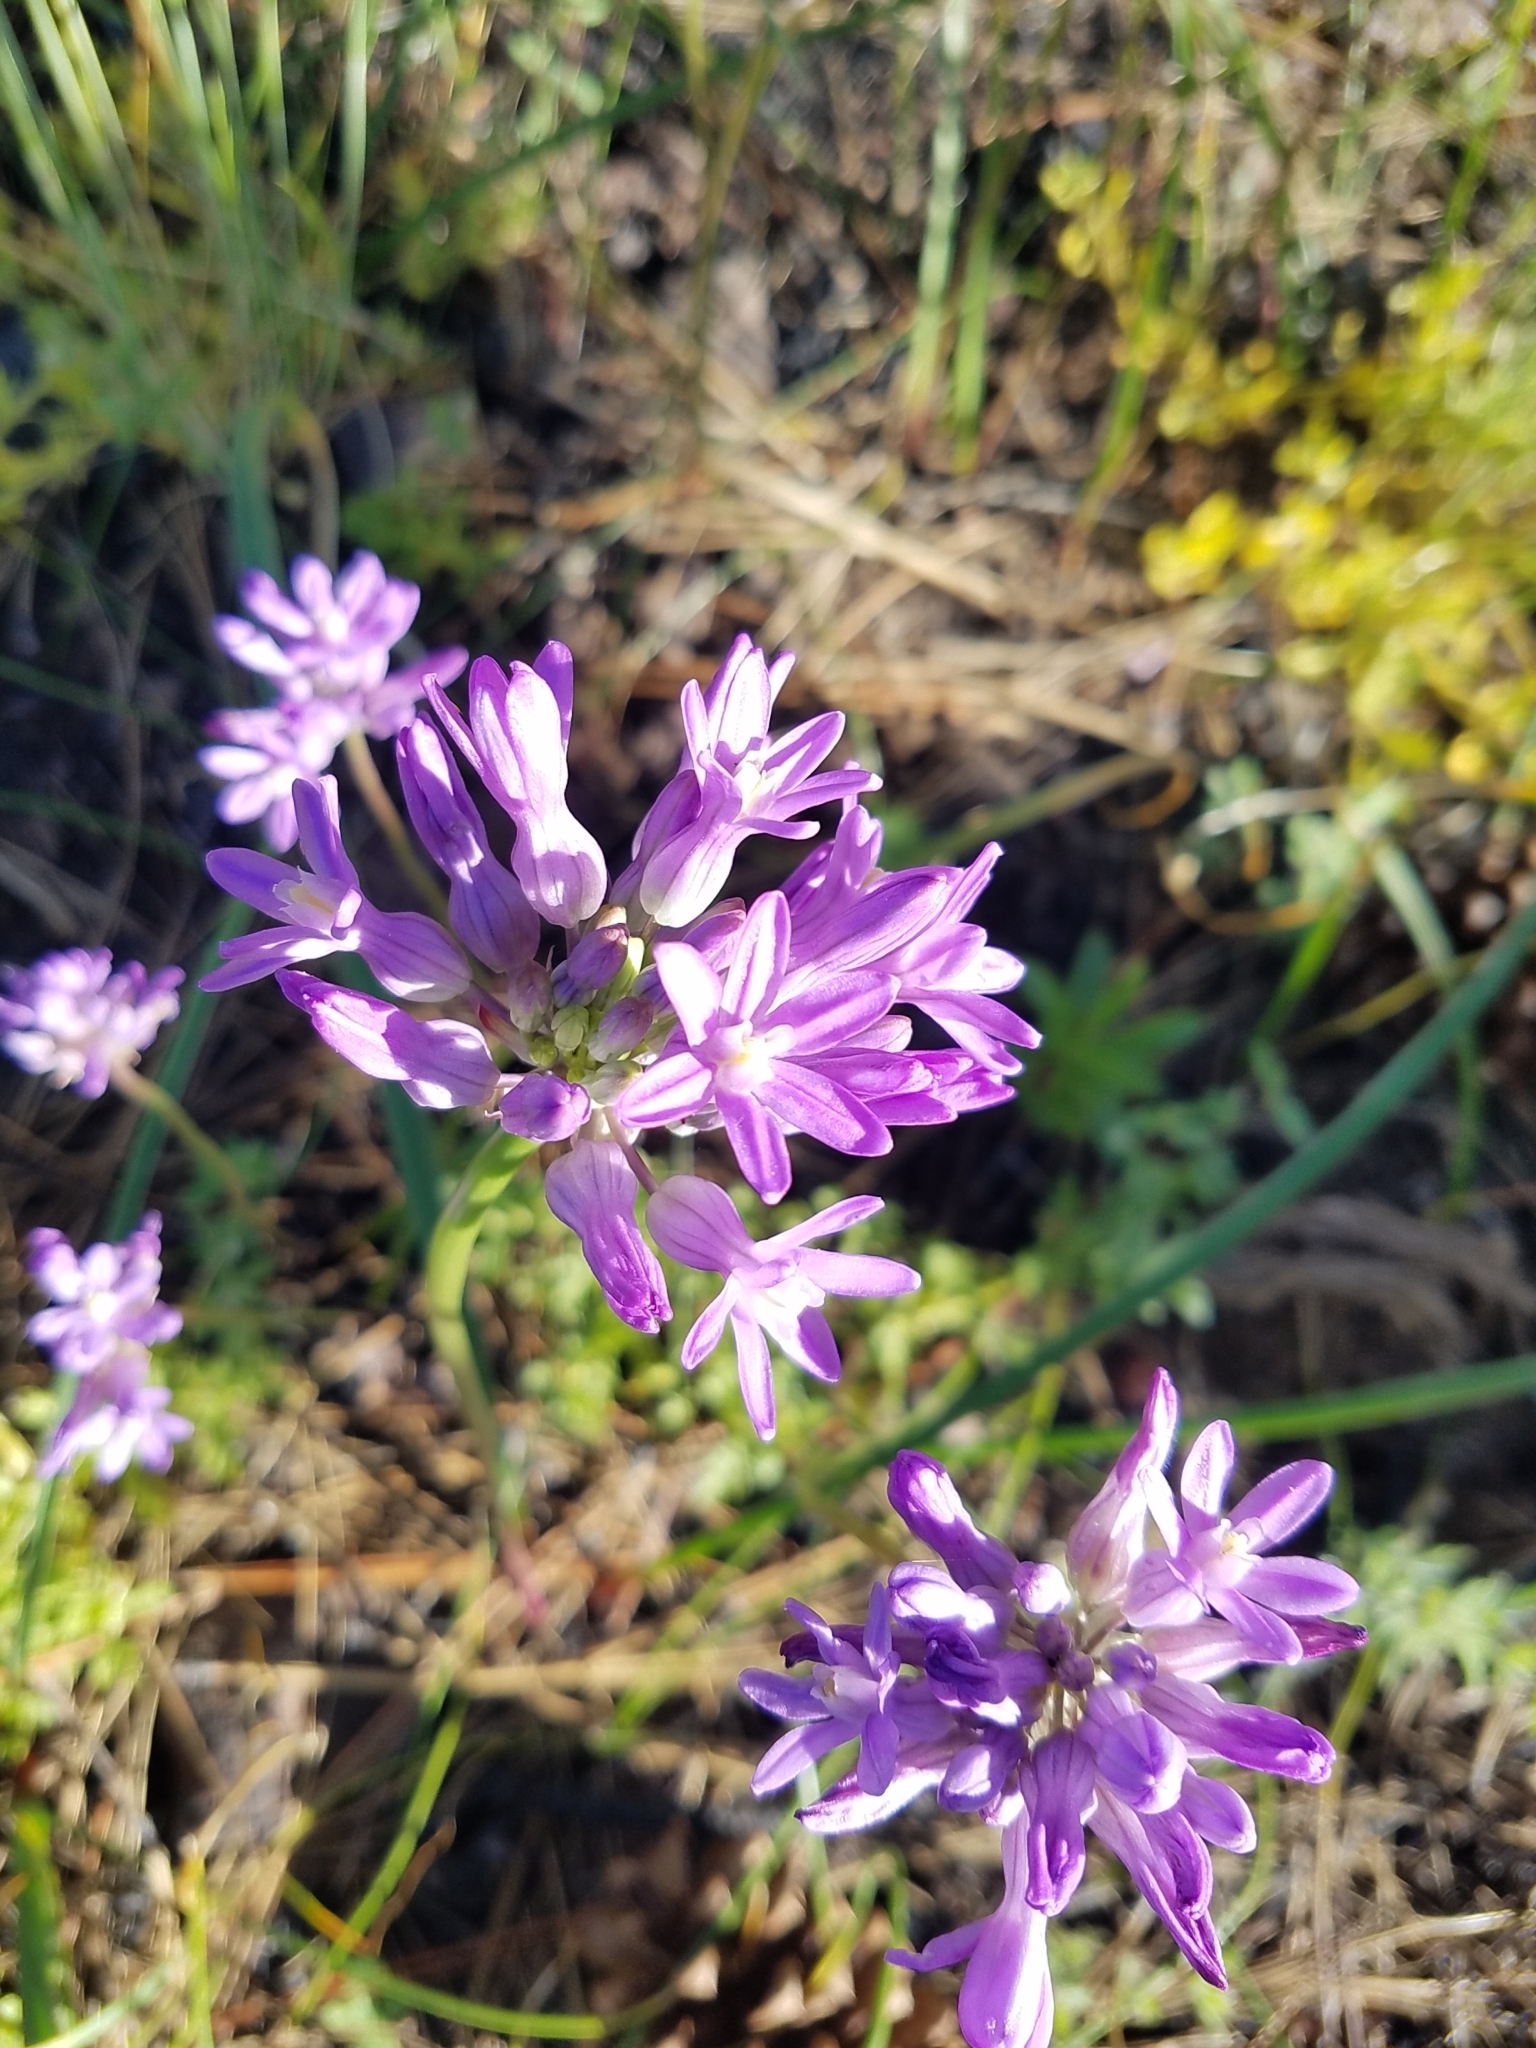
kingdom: Plantae
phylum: Tracheophyta
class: Liliopsida
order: Asparagales
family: Asparagaceae
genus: Dichelostemma
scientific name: Dichelostemma multiflorum
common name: Round-tooth ookow
